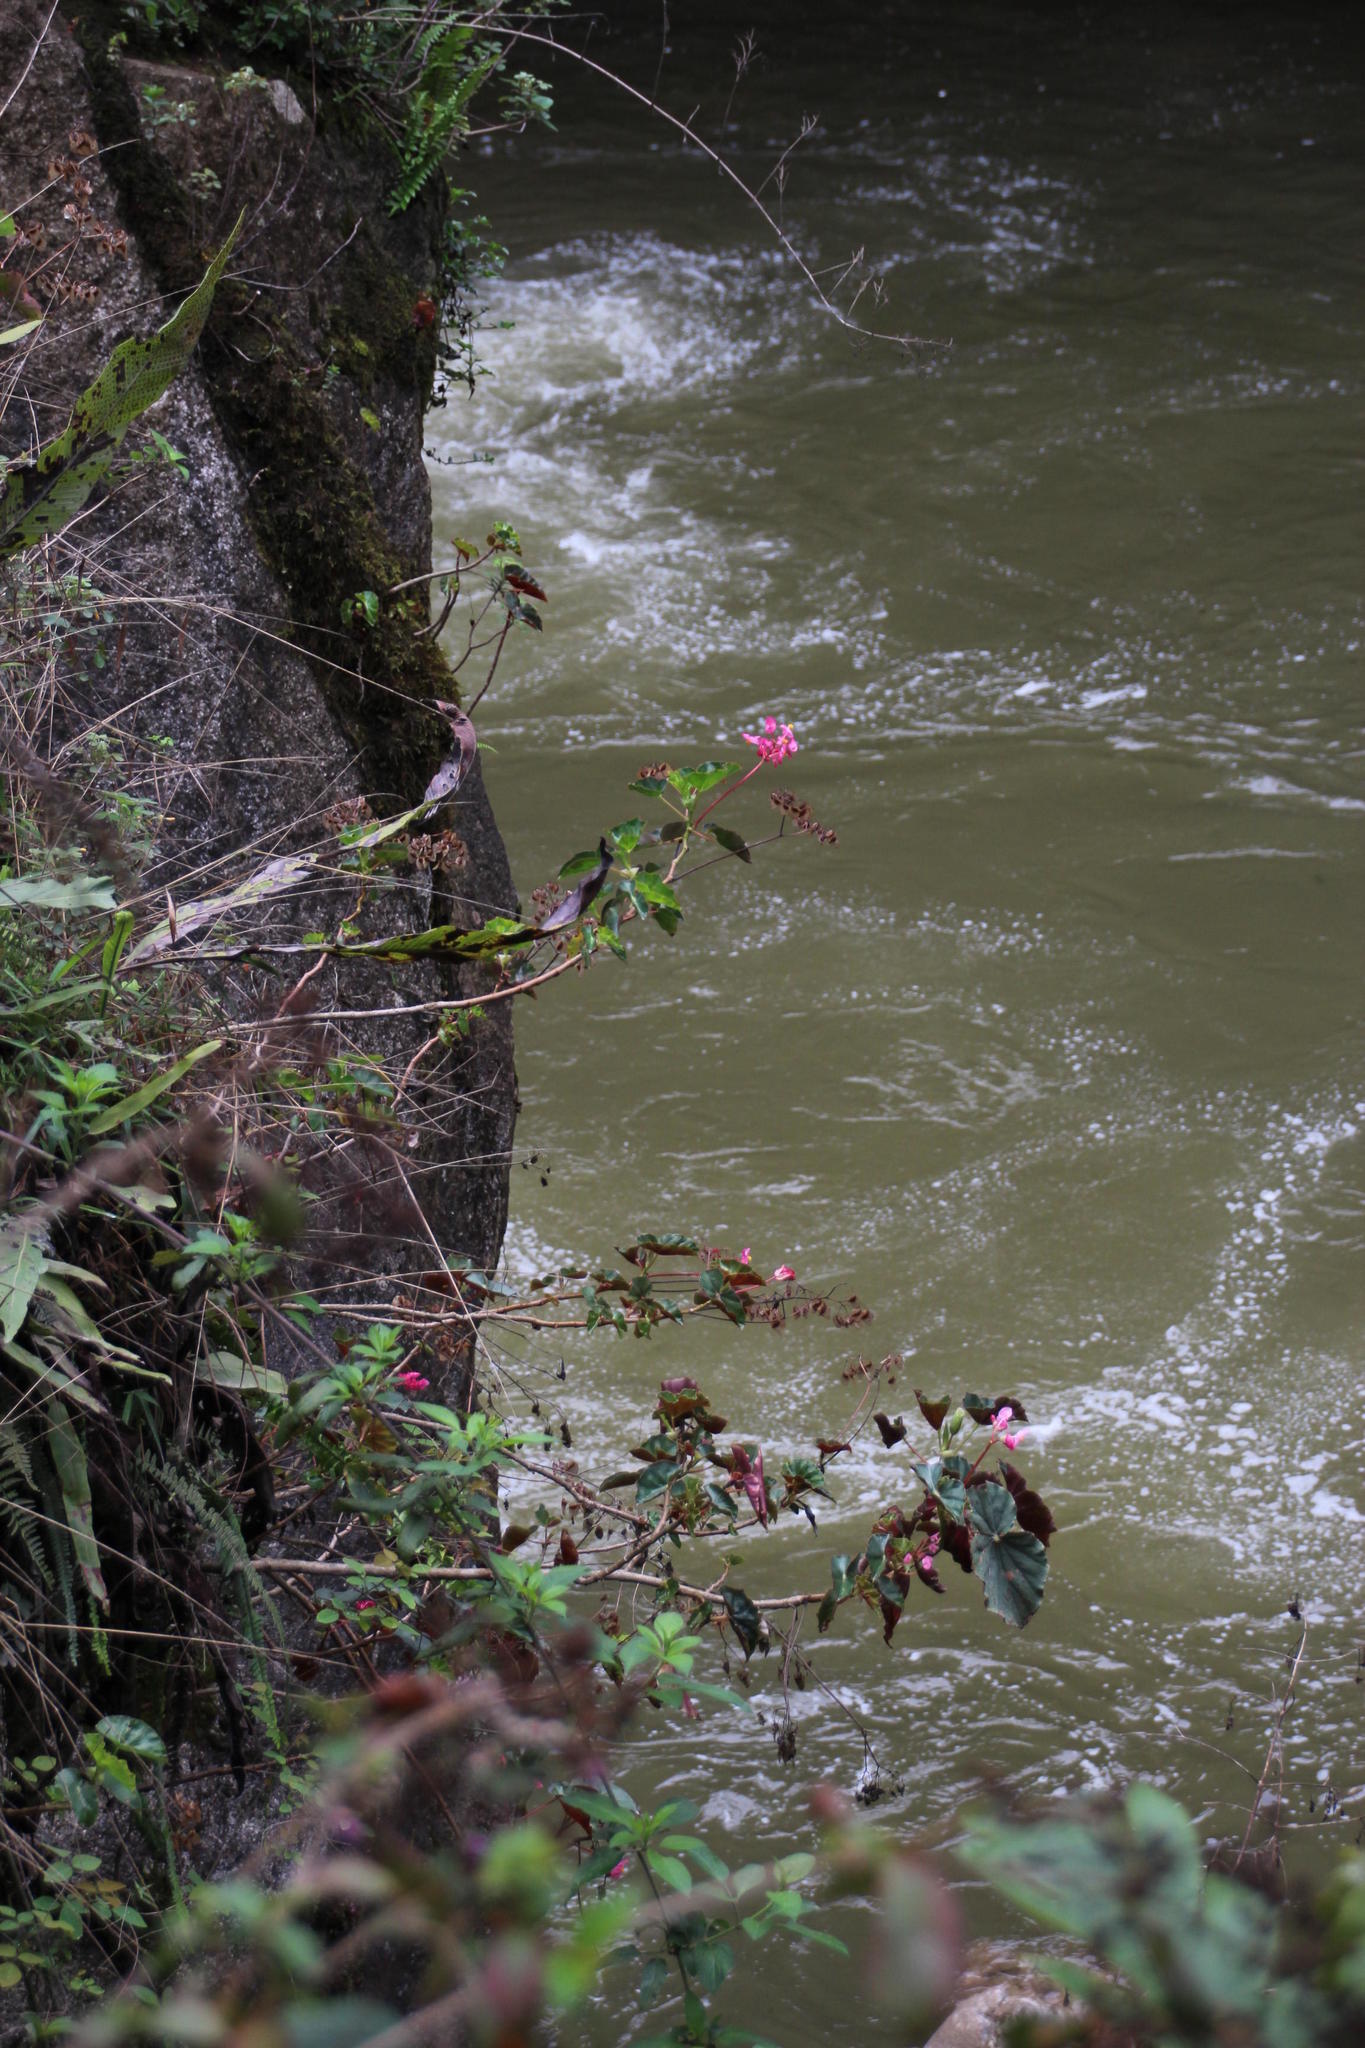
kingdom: Plantae
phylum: Tracheophyta
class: Magnoliopsida
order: Cucurbitales
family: Begoniaceae
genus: Begonia
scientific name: Begonia bracteosa
